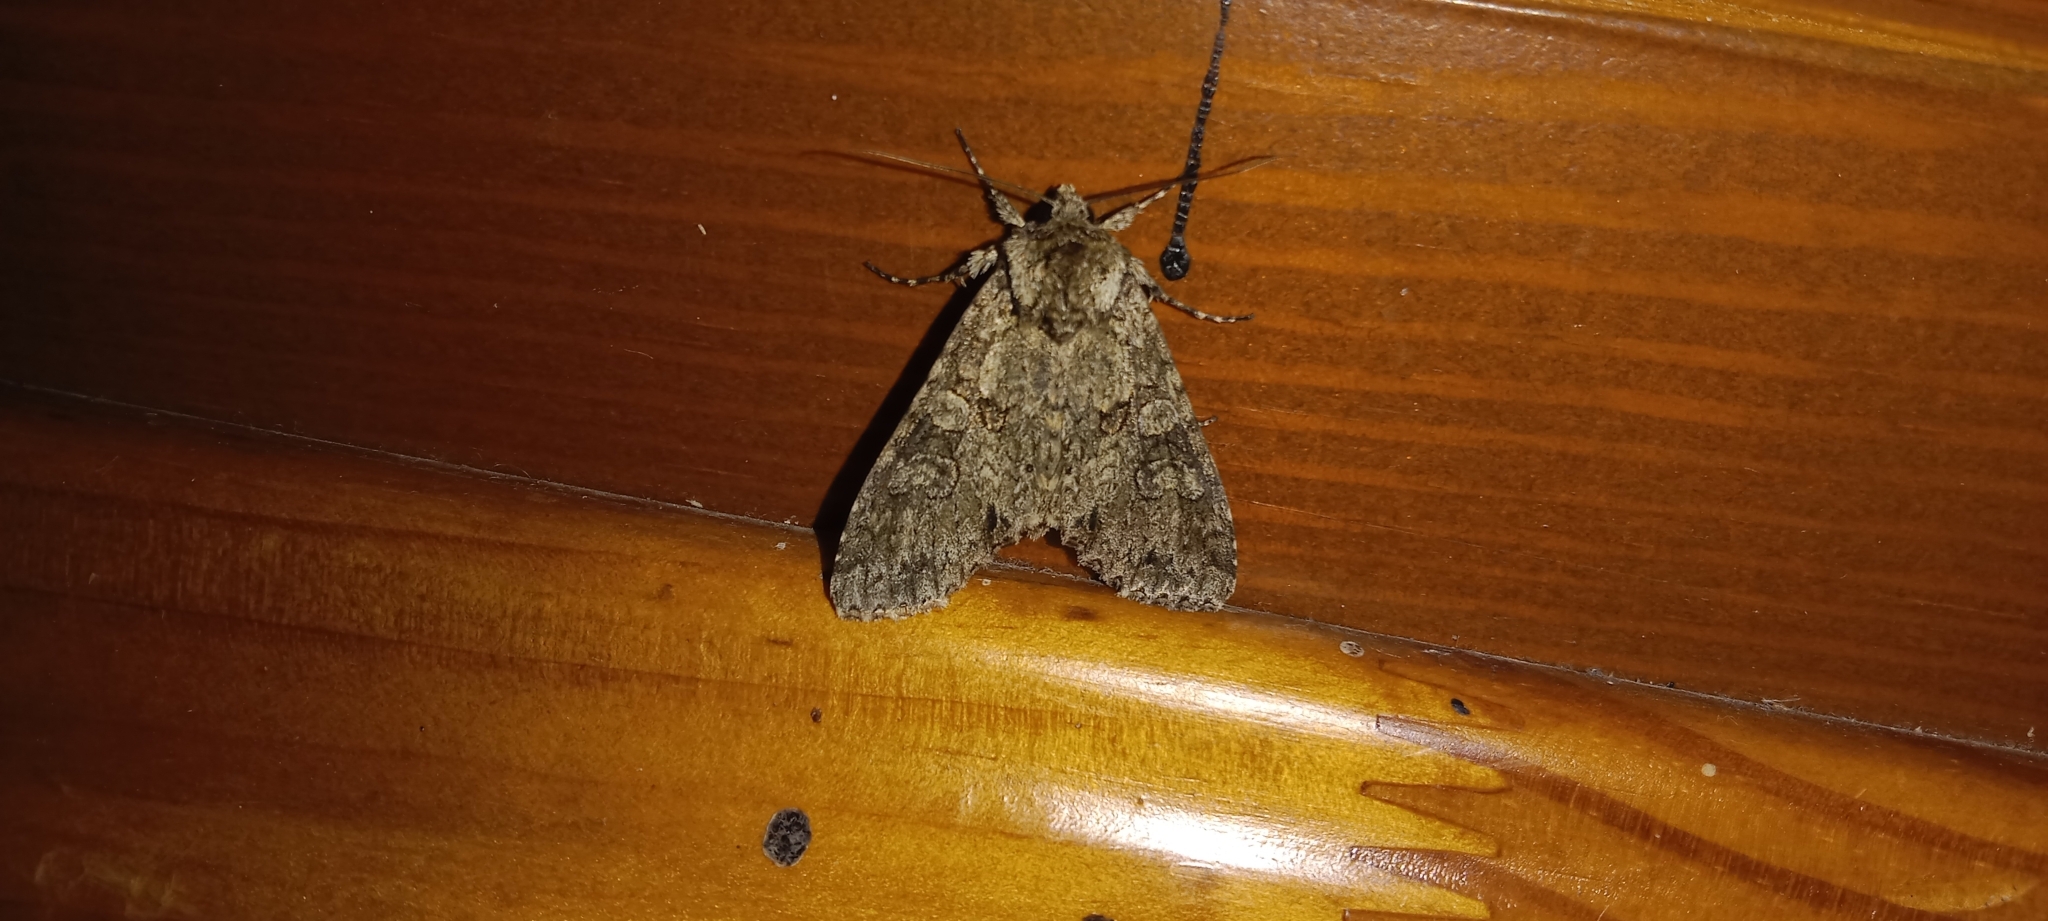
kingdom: Animalia
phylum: Arthropoda
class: Insecta
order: Lepidoptera
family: Noctuidae
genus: Polia
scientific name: Polia nebulosa
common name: Grey arches
